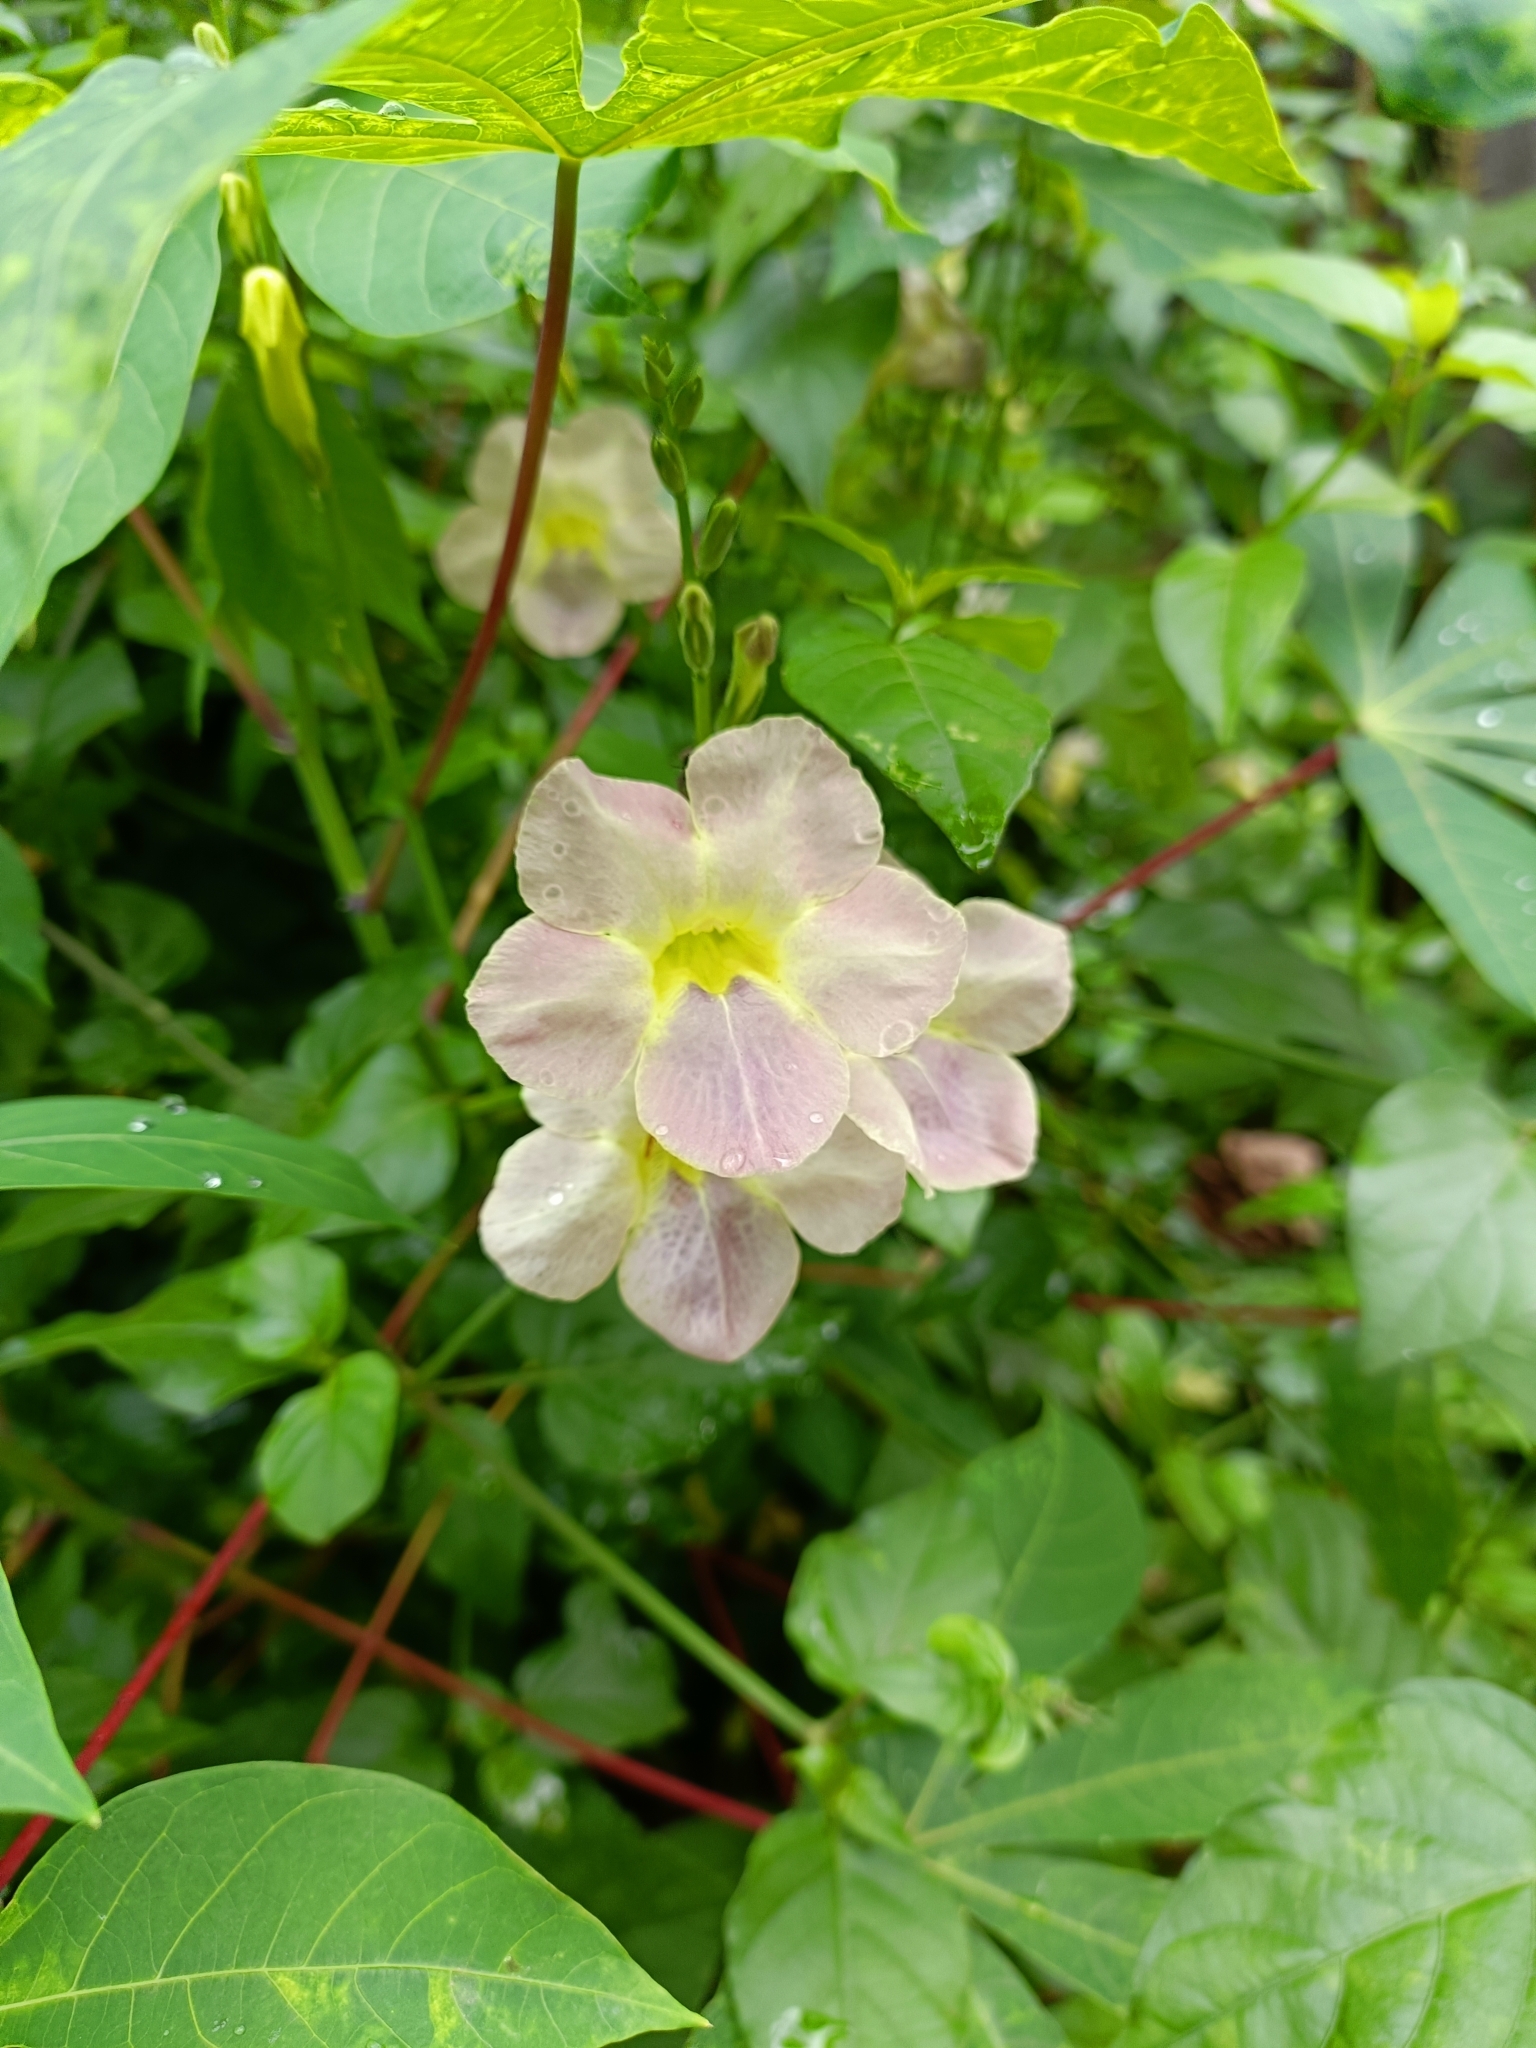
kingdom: Plantae
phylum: Tracheophyta
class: Magnoliopsida
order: Lamiales
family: Acanthaceae
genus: Asystasia
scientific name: Asystasia gangetica
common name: Chinese violet
